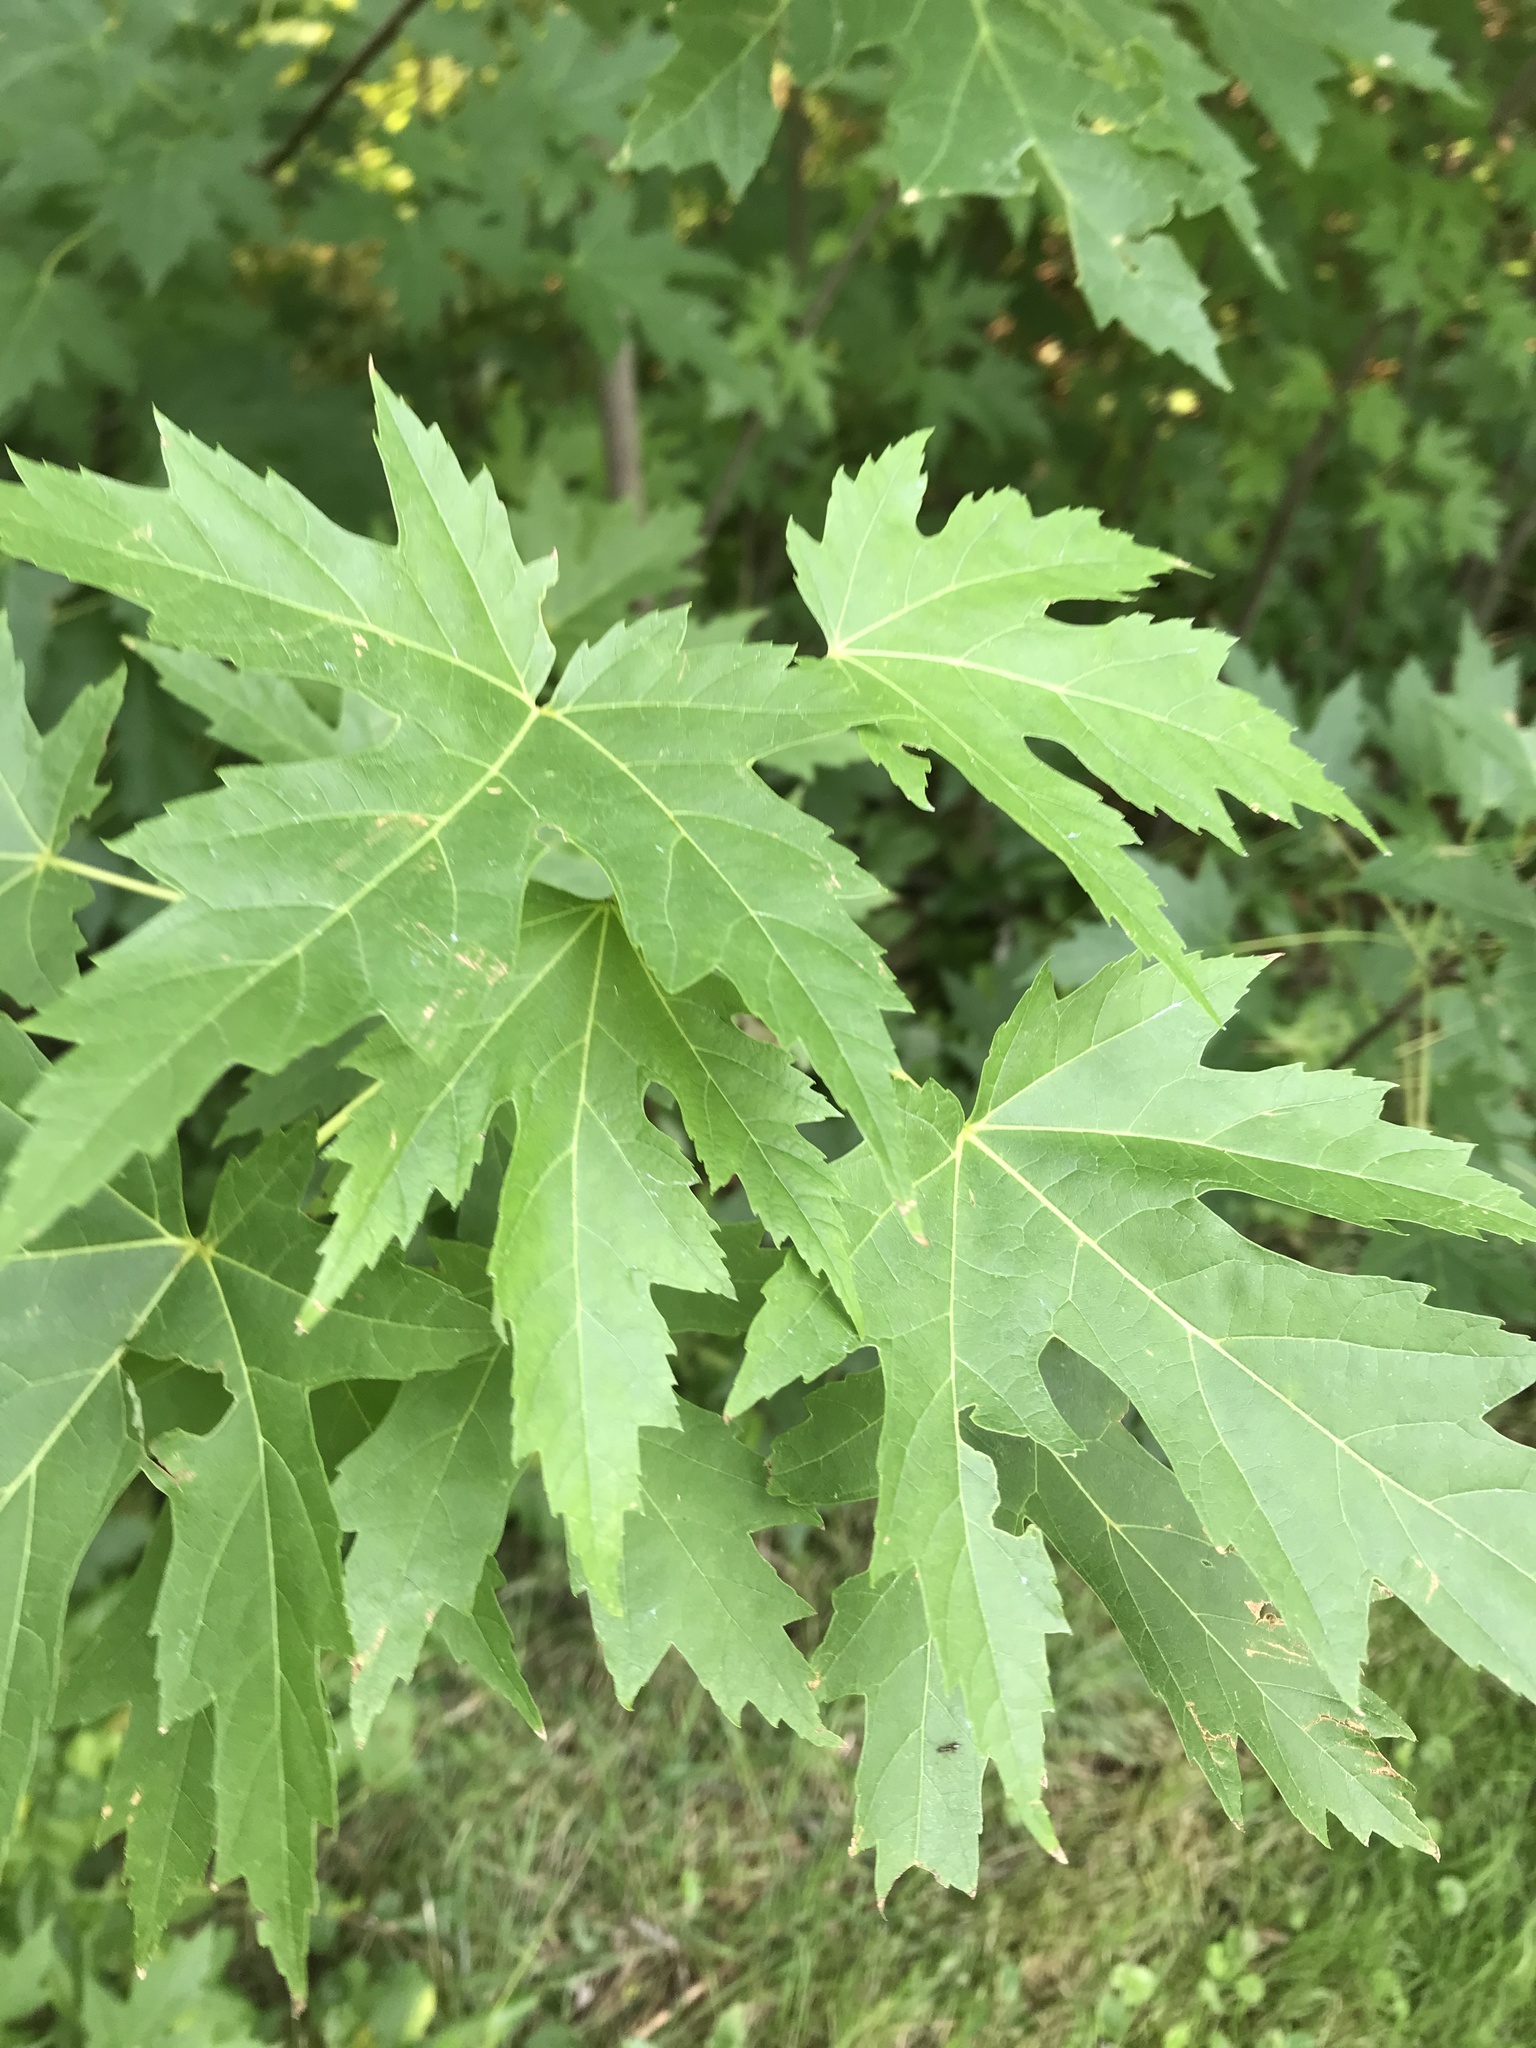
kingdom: Plantae
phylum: Tracheophyta
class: Magnoliopsida
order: Sapindales
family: Sapindaceae
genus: Acer
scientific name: Acer saccharinum
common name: Silver maple
